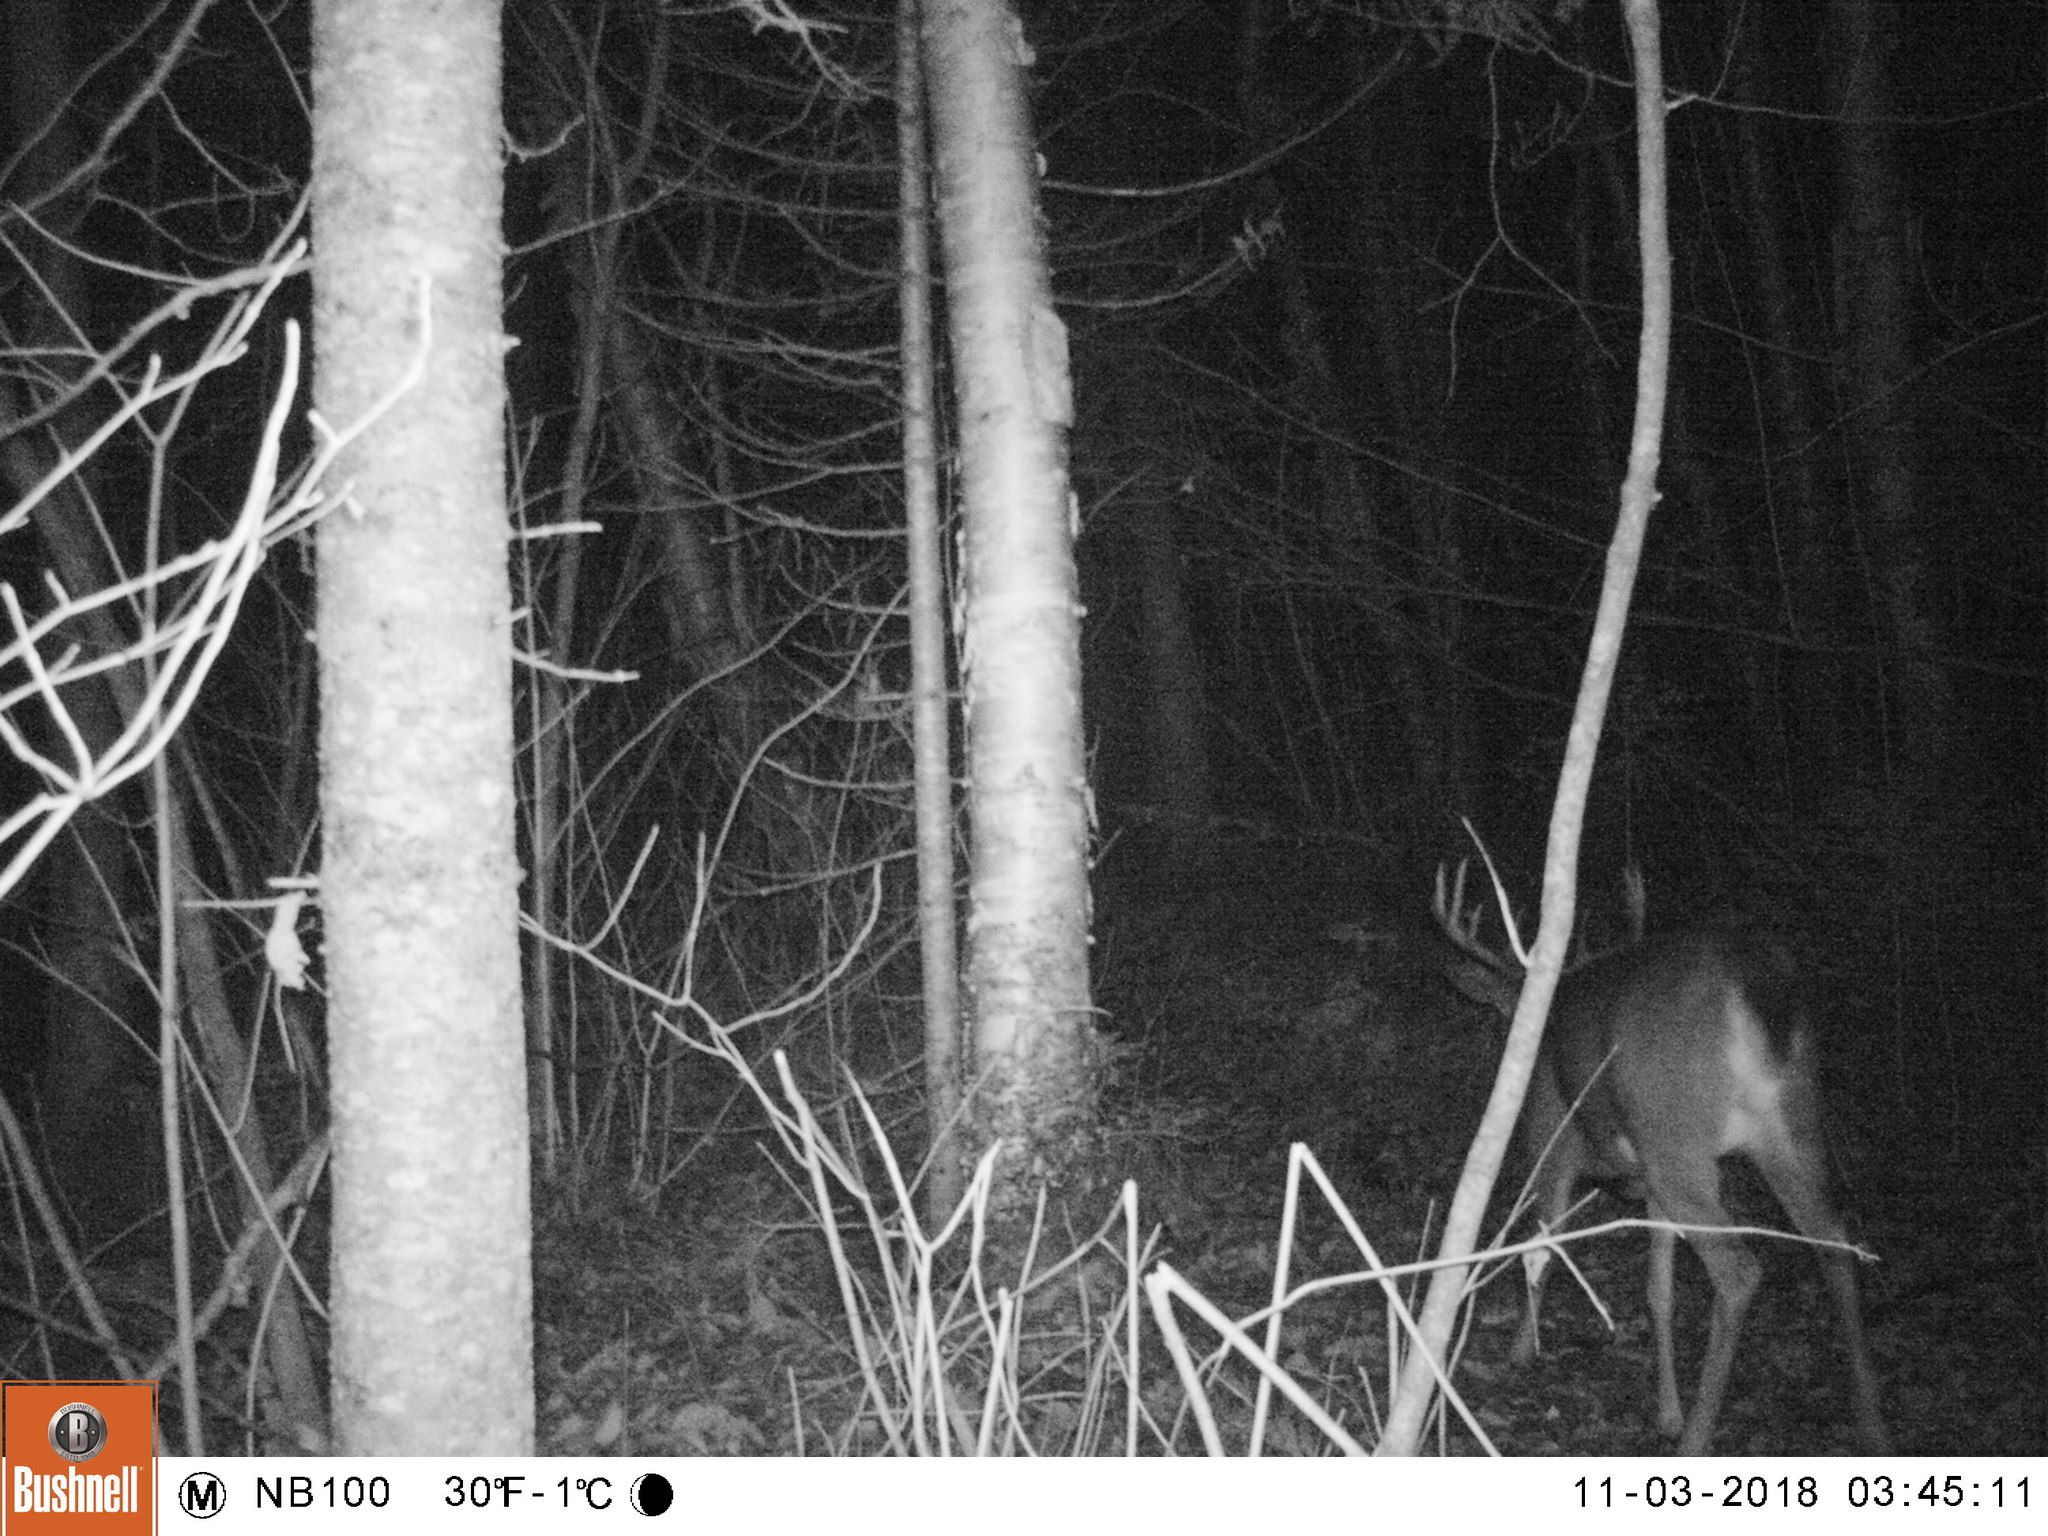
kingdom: Animalia
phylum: Chordata
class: Mammalia
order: Artiodactyla
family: Cervidae
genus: Odocoileus
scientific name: Odocoileus virginianus
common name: White-tailed deer
